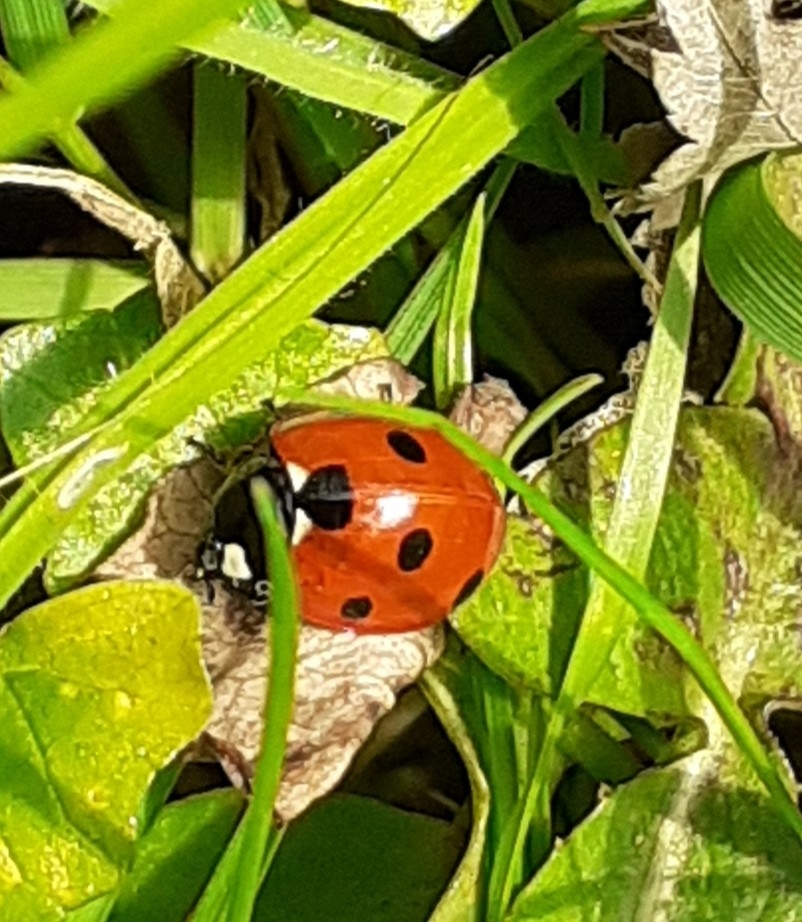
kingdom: Animalia
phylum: Arthropoda
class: Insecta
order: Coleoptera
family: Coccinellidae
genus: Coccinella
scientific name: Coccinella septempunctata
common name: Sevenspotted lady beetle
